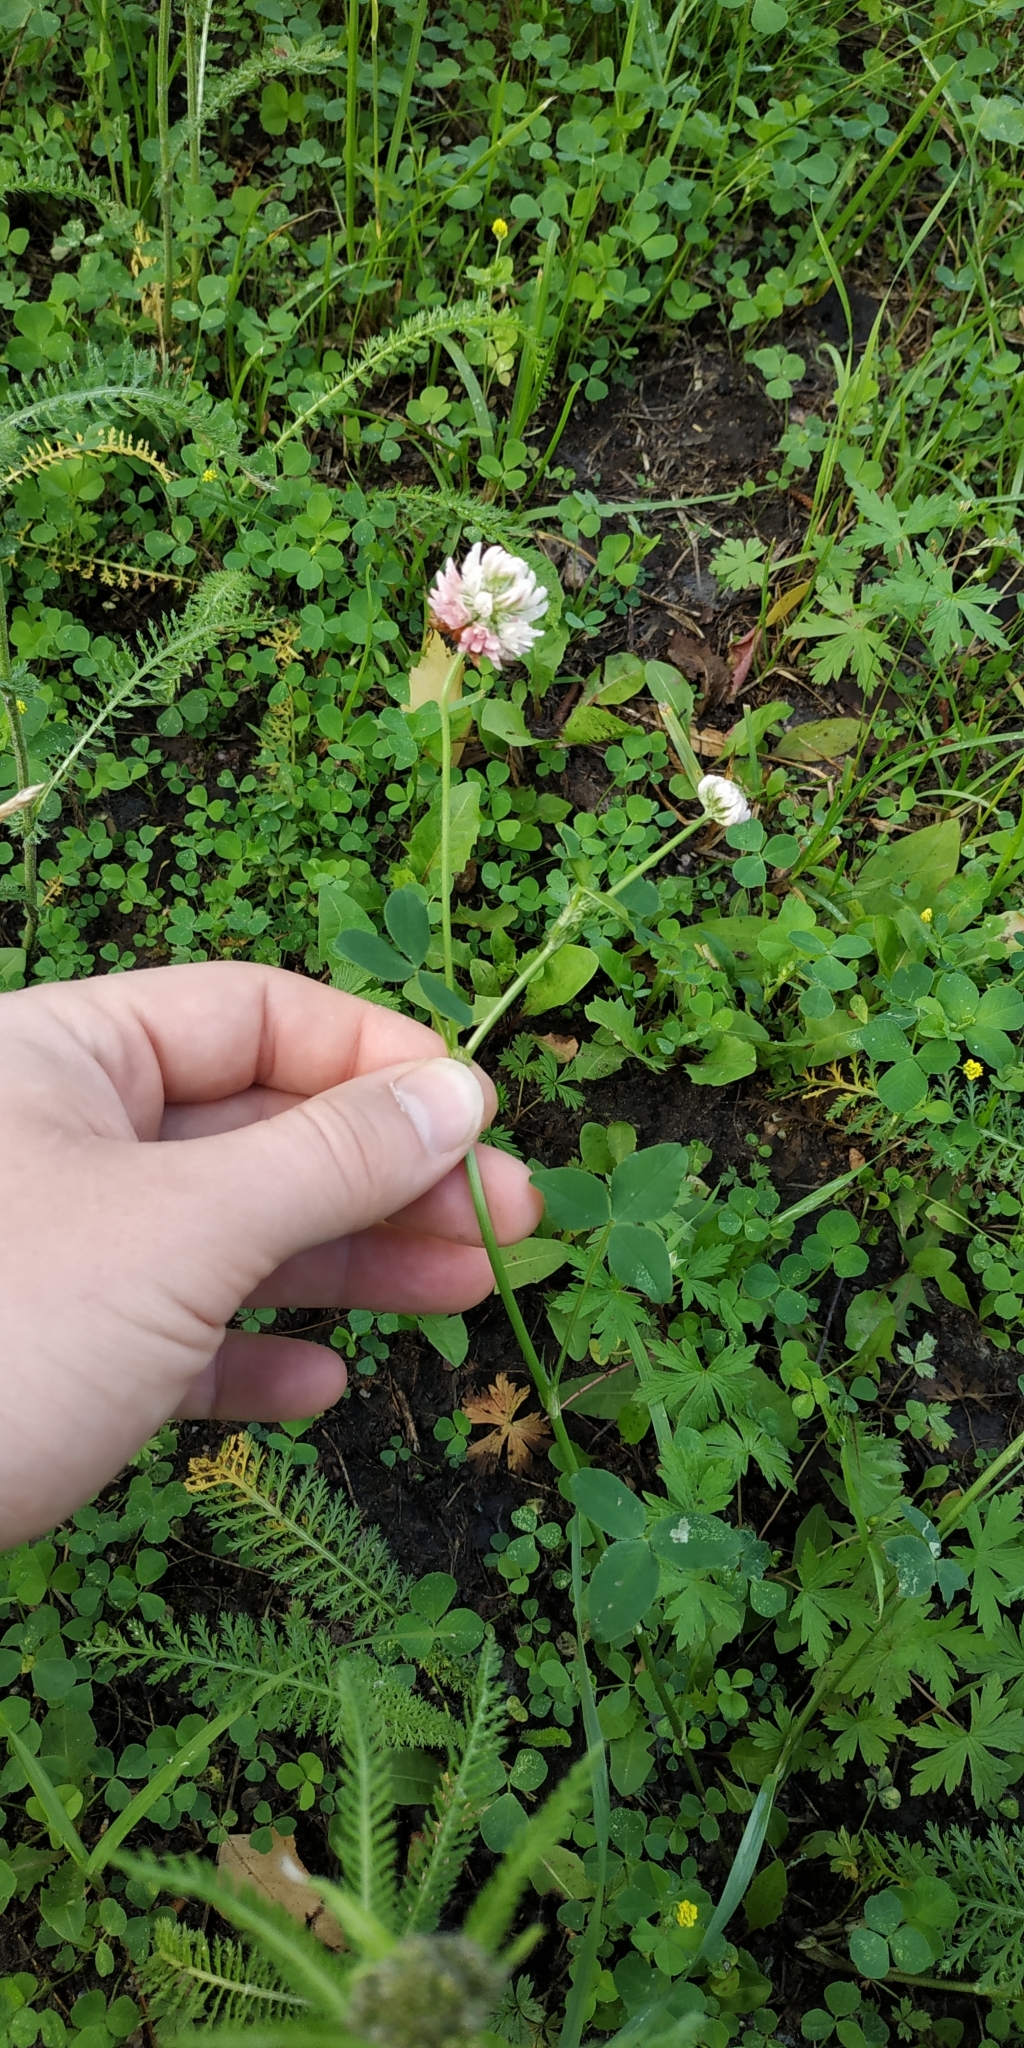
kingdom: Plantae
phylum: Tracheophyta
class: Magnoliopsida
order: Fabales
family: Fabaceae
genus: Trifolium
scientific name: Trifolium hybridum
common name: Alsike clover
